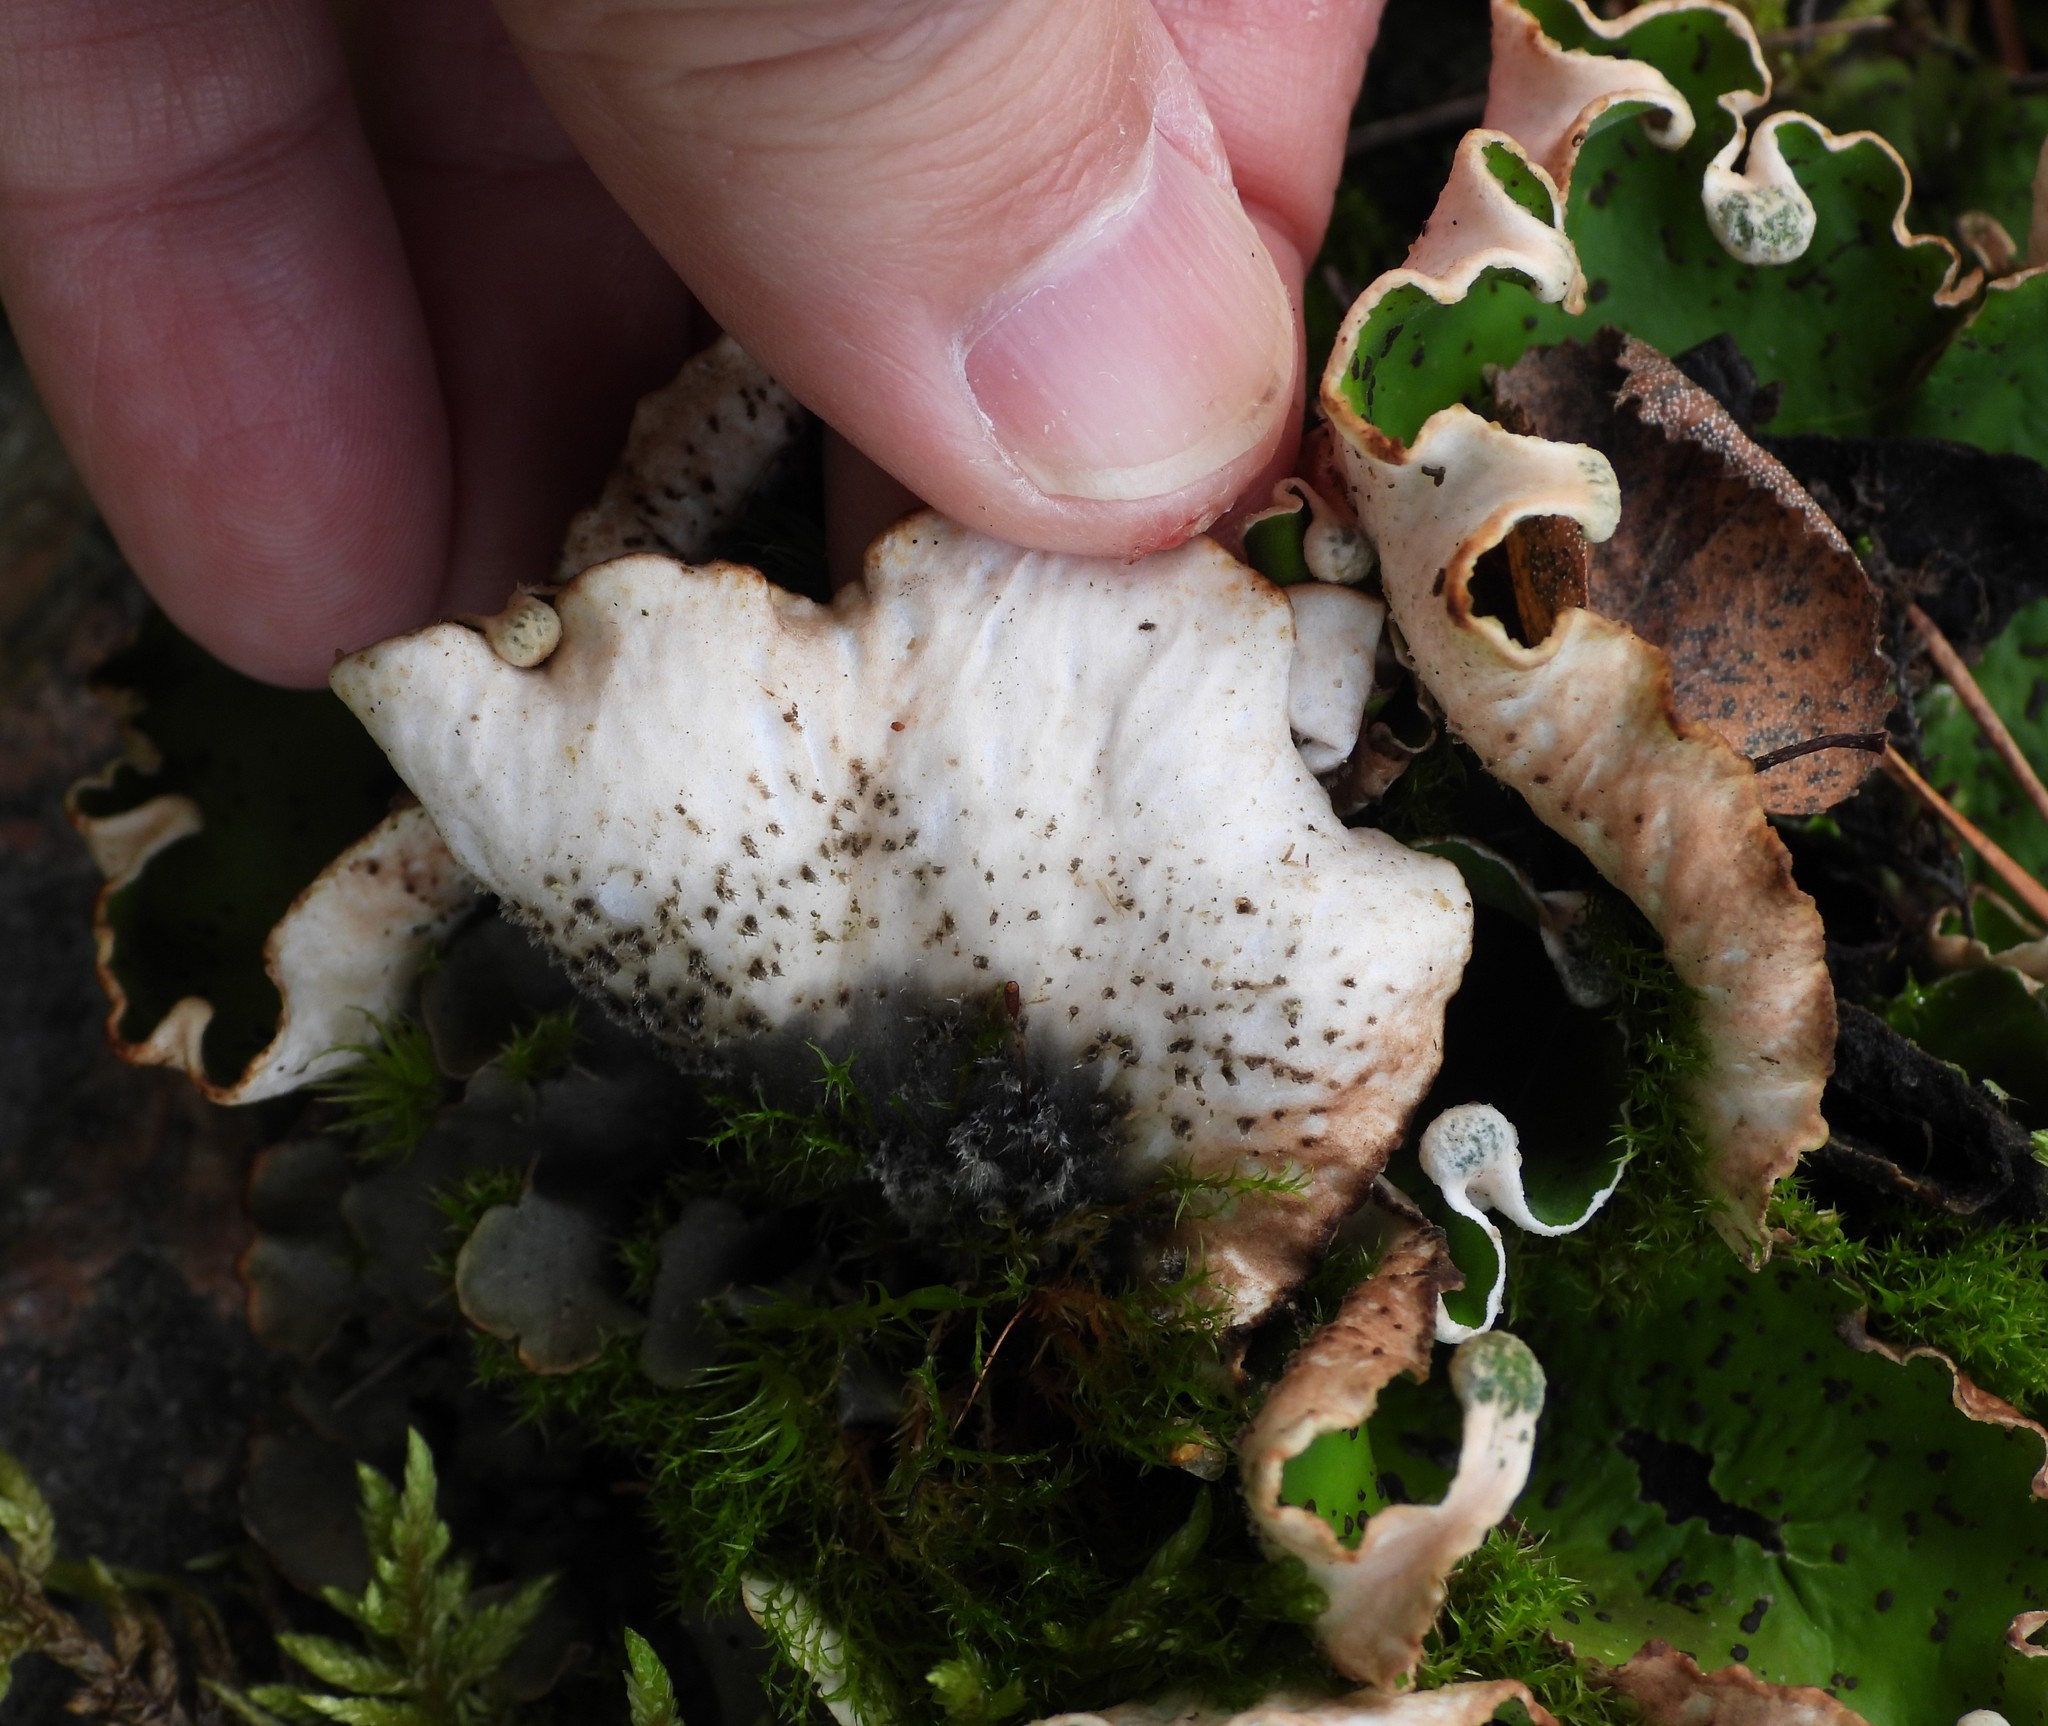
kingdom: Fungi
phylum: Ascomycota
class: Lecanoromycetes
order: Peltigerales
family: Peltigeraceae
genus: Peltigera
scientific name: Peltigera aphthosa
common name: Common freckle pelt lichen
